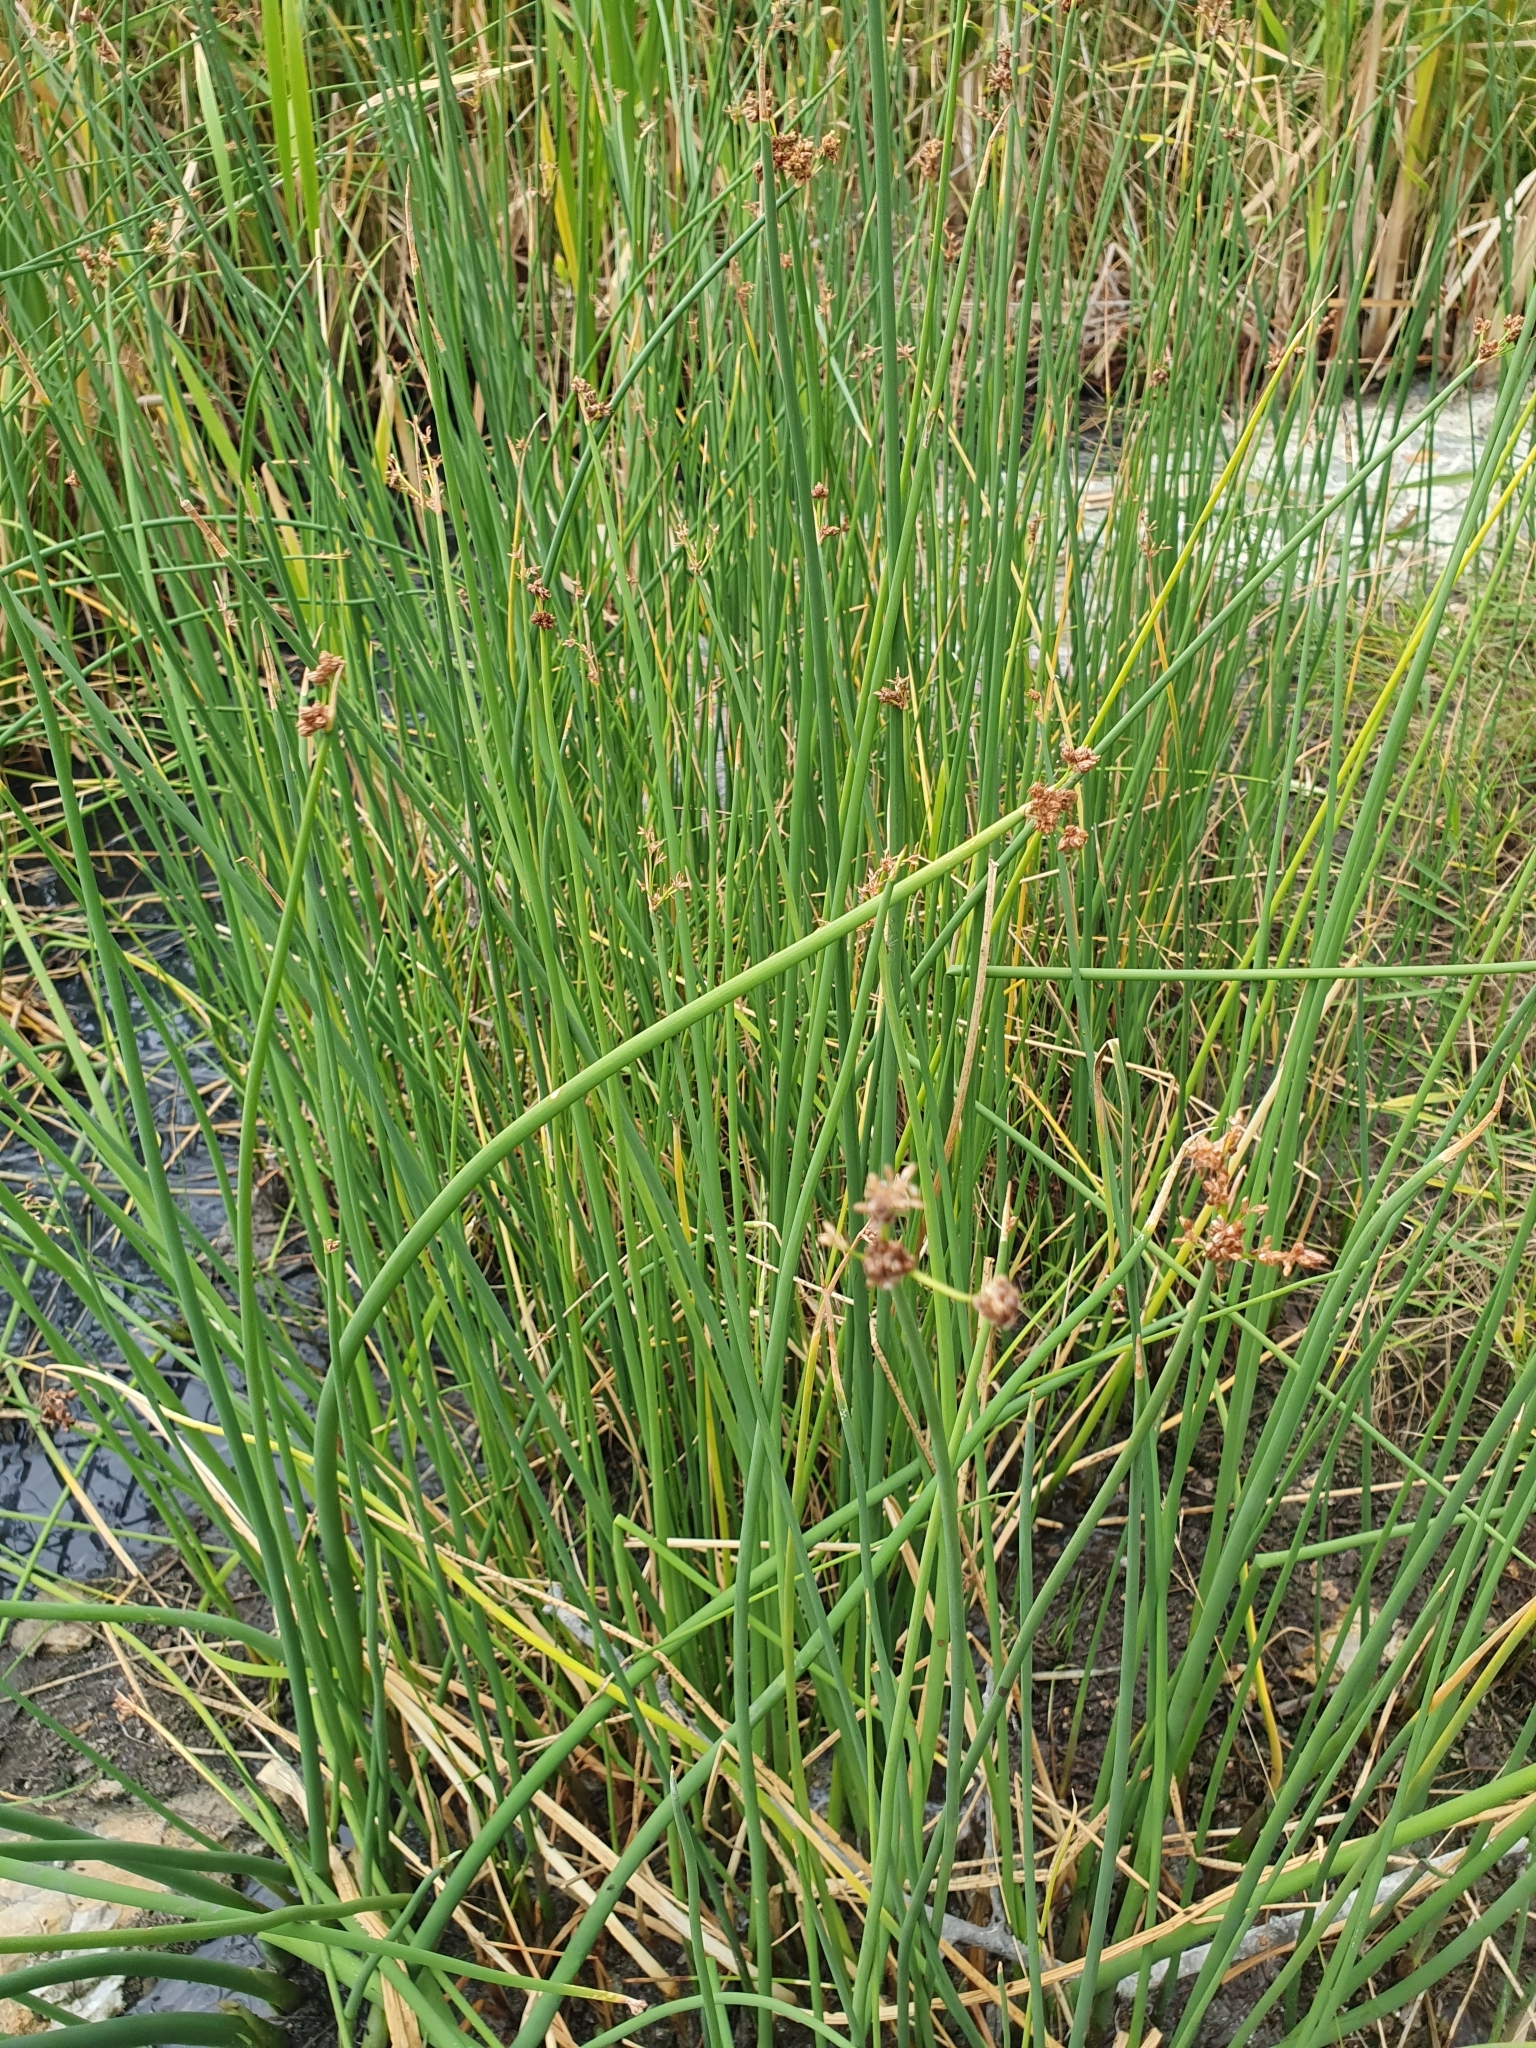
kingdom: Plantae
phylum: Tracheophyta
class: Liliopsida
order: Poales
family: Cyperaceae
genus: Schoenoplectus
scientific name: Schoenoplectus tabernaemontani
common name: Grey club-rush
